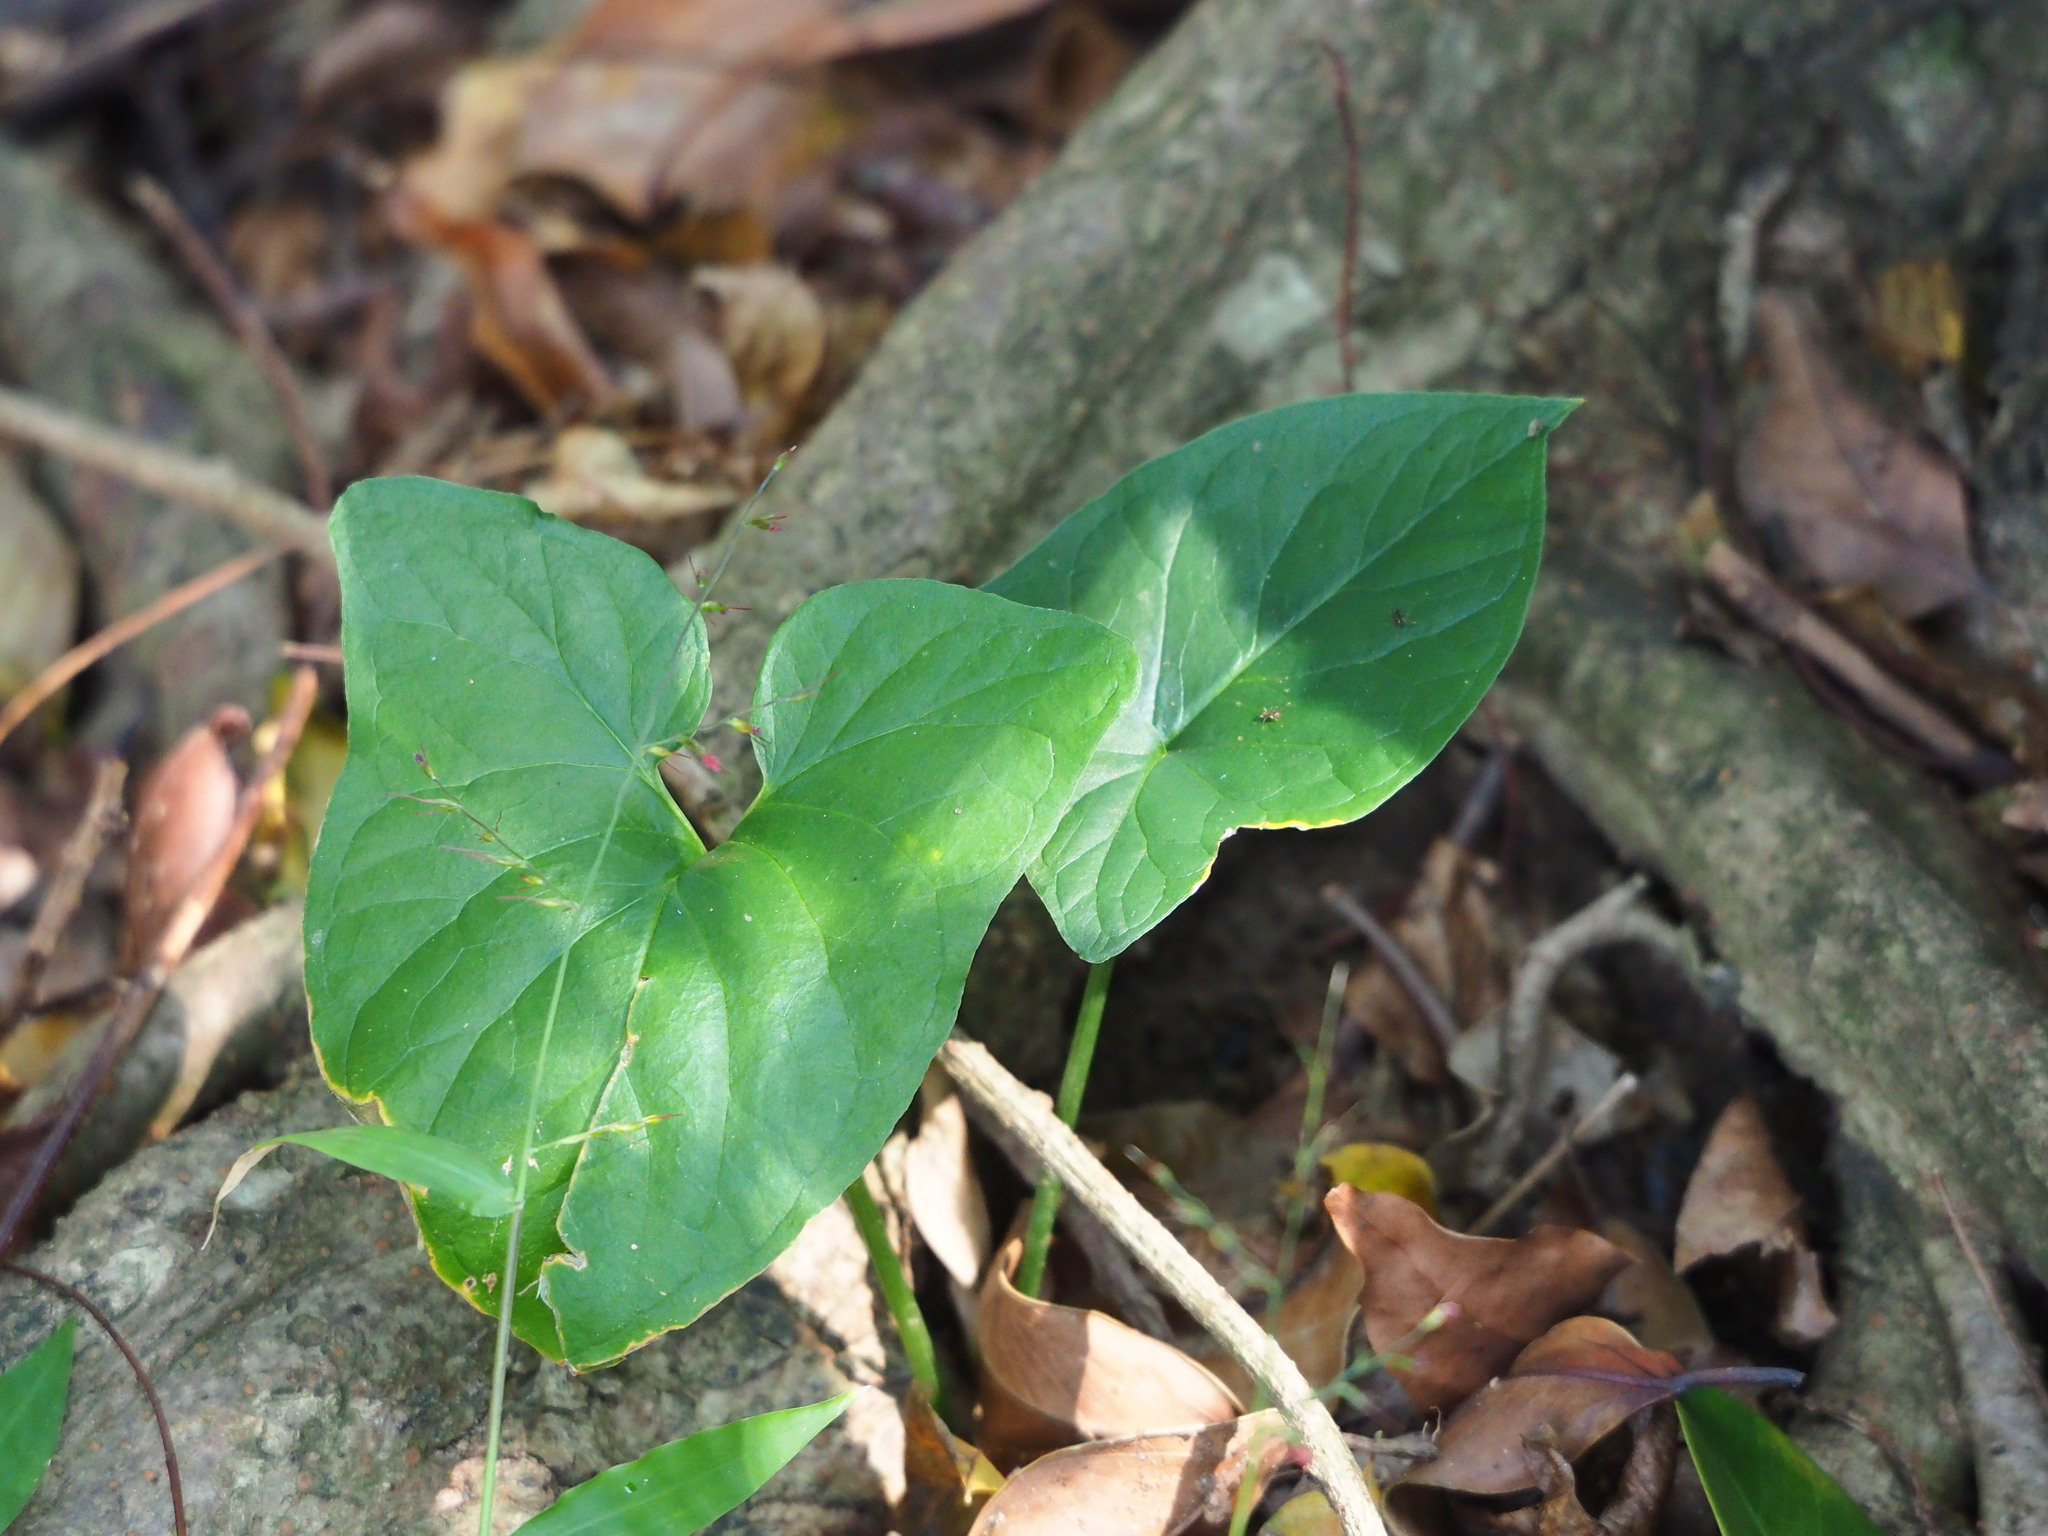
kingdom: Plantae
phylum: Tracheophyta
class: Liliopsida
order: Alismatales
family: Araceae
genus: Typhonium
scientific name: Typhonium blumei
